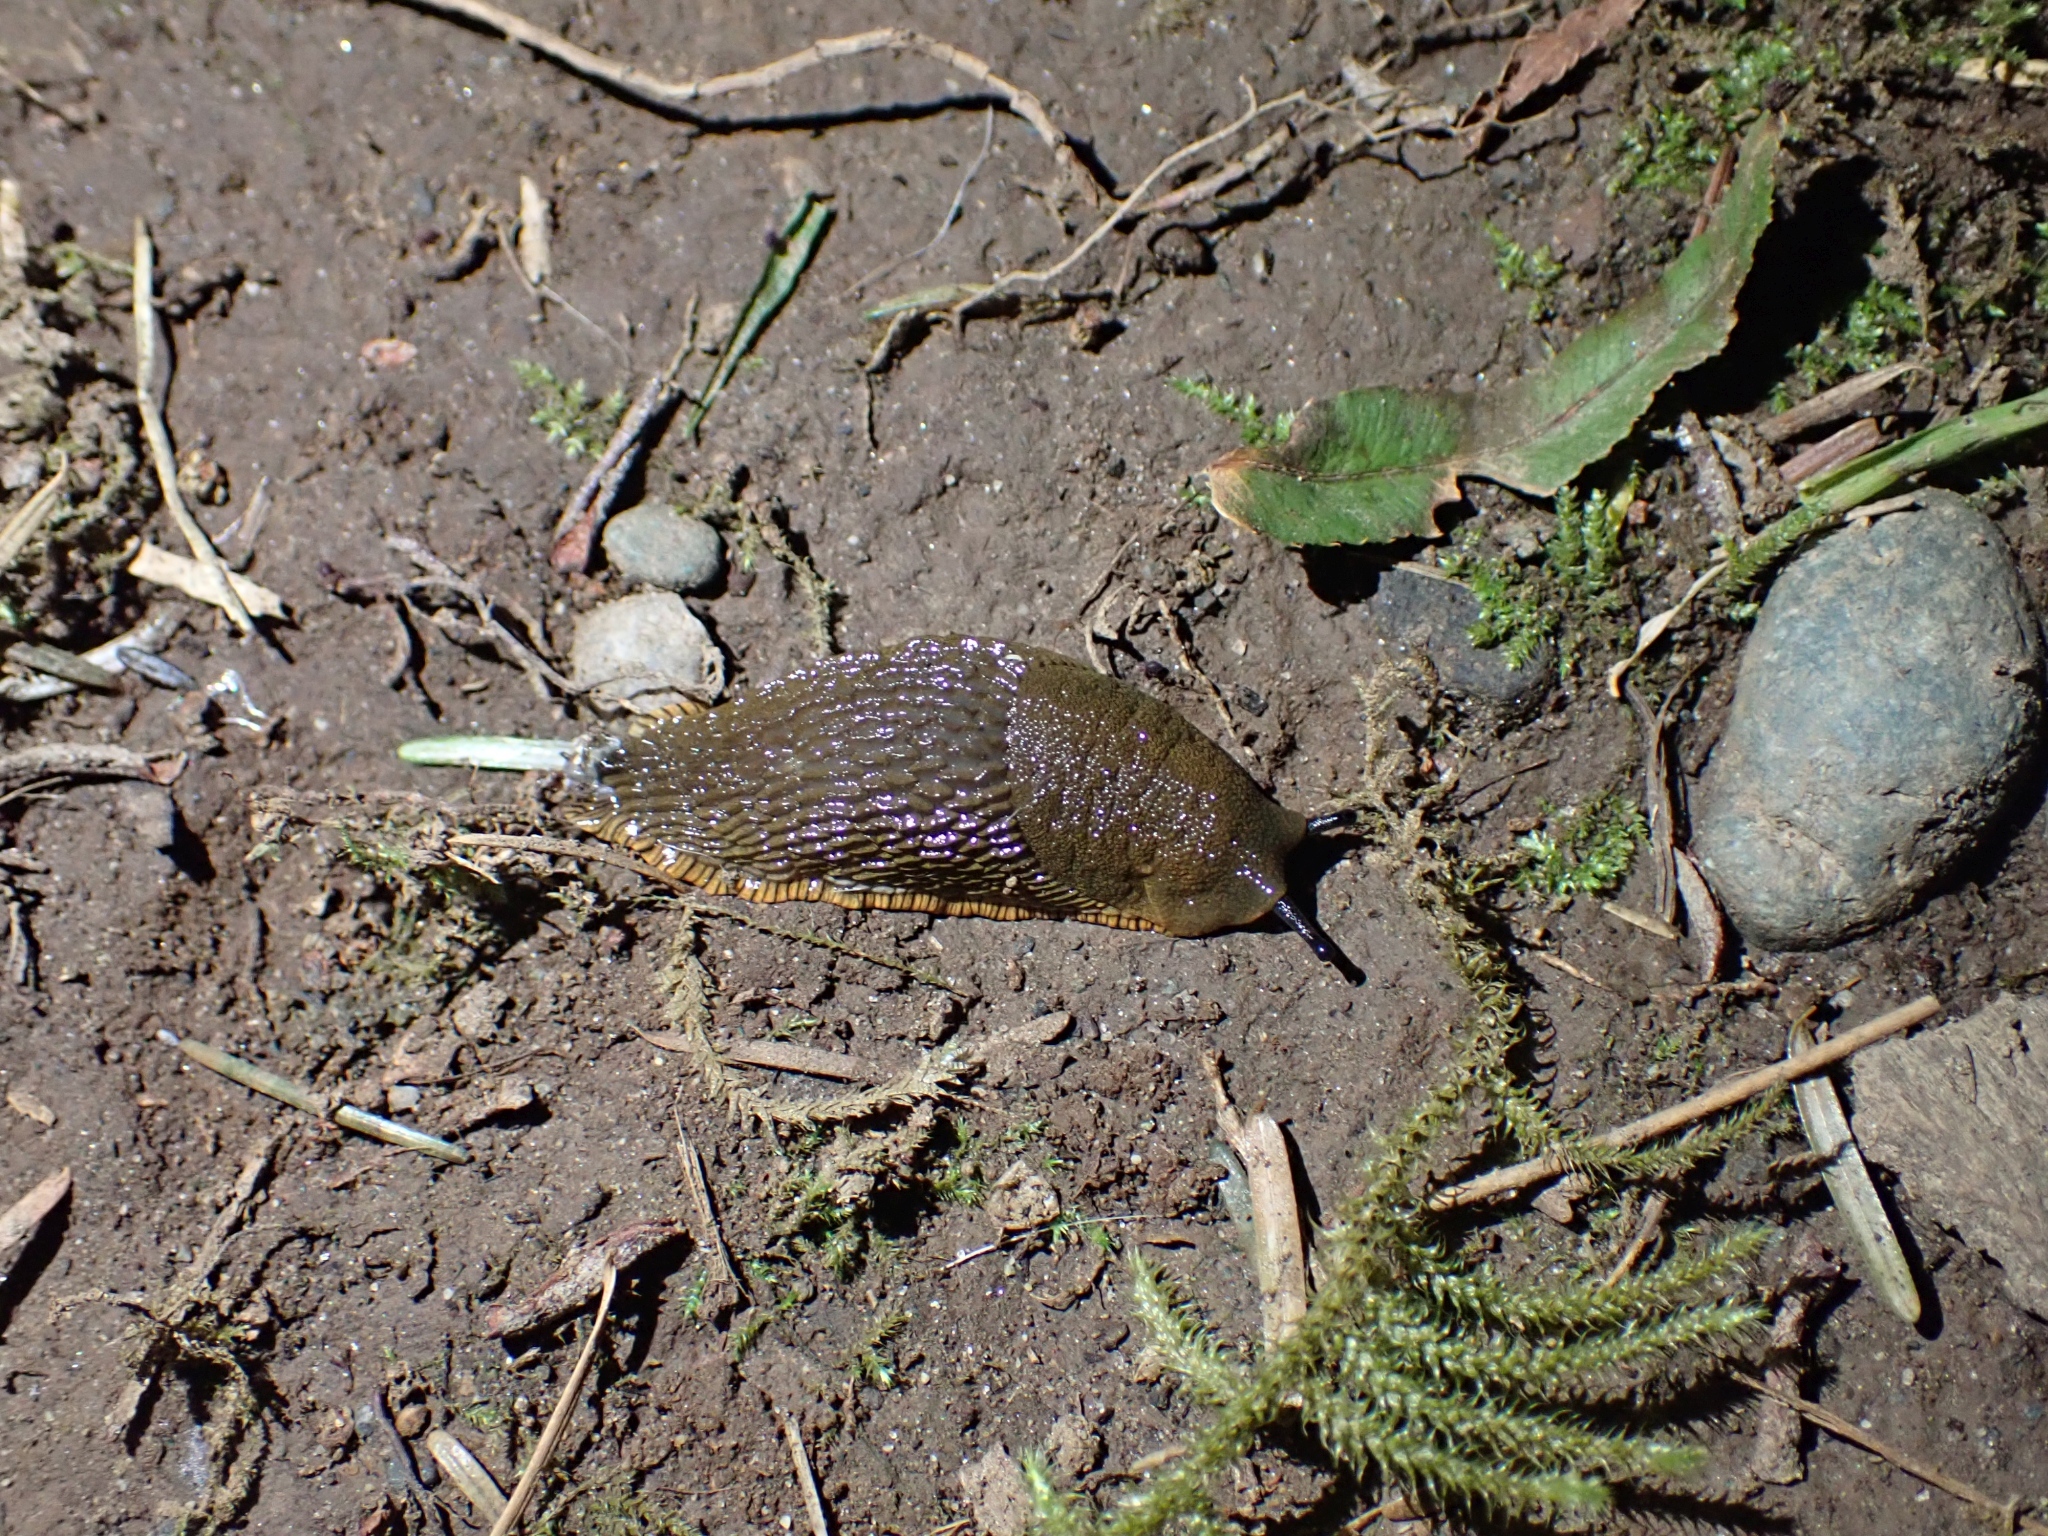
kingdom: Animalia
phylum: Mollusca
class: Gastropoda
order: Stylommatophora
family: Arionidae
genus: Arion
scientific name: Arion
